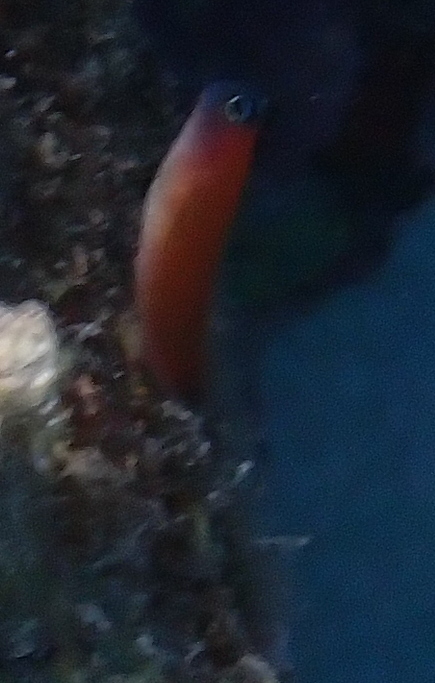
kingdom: Animalia
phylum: Chordata
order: Perciformes
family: Blenniidae
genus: Ecsenius
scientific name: Ecsenius aroni
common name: Aron's blenny
